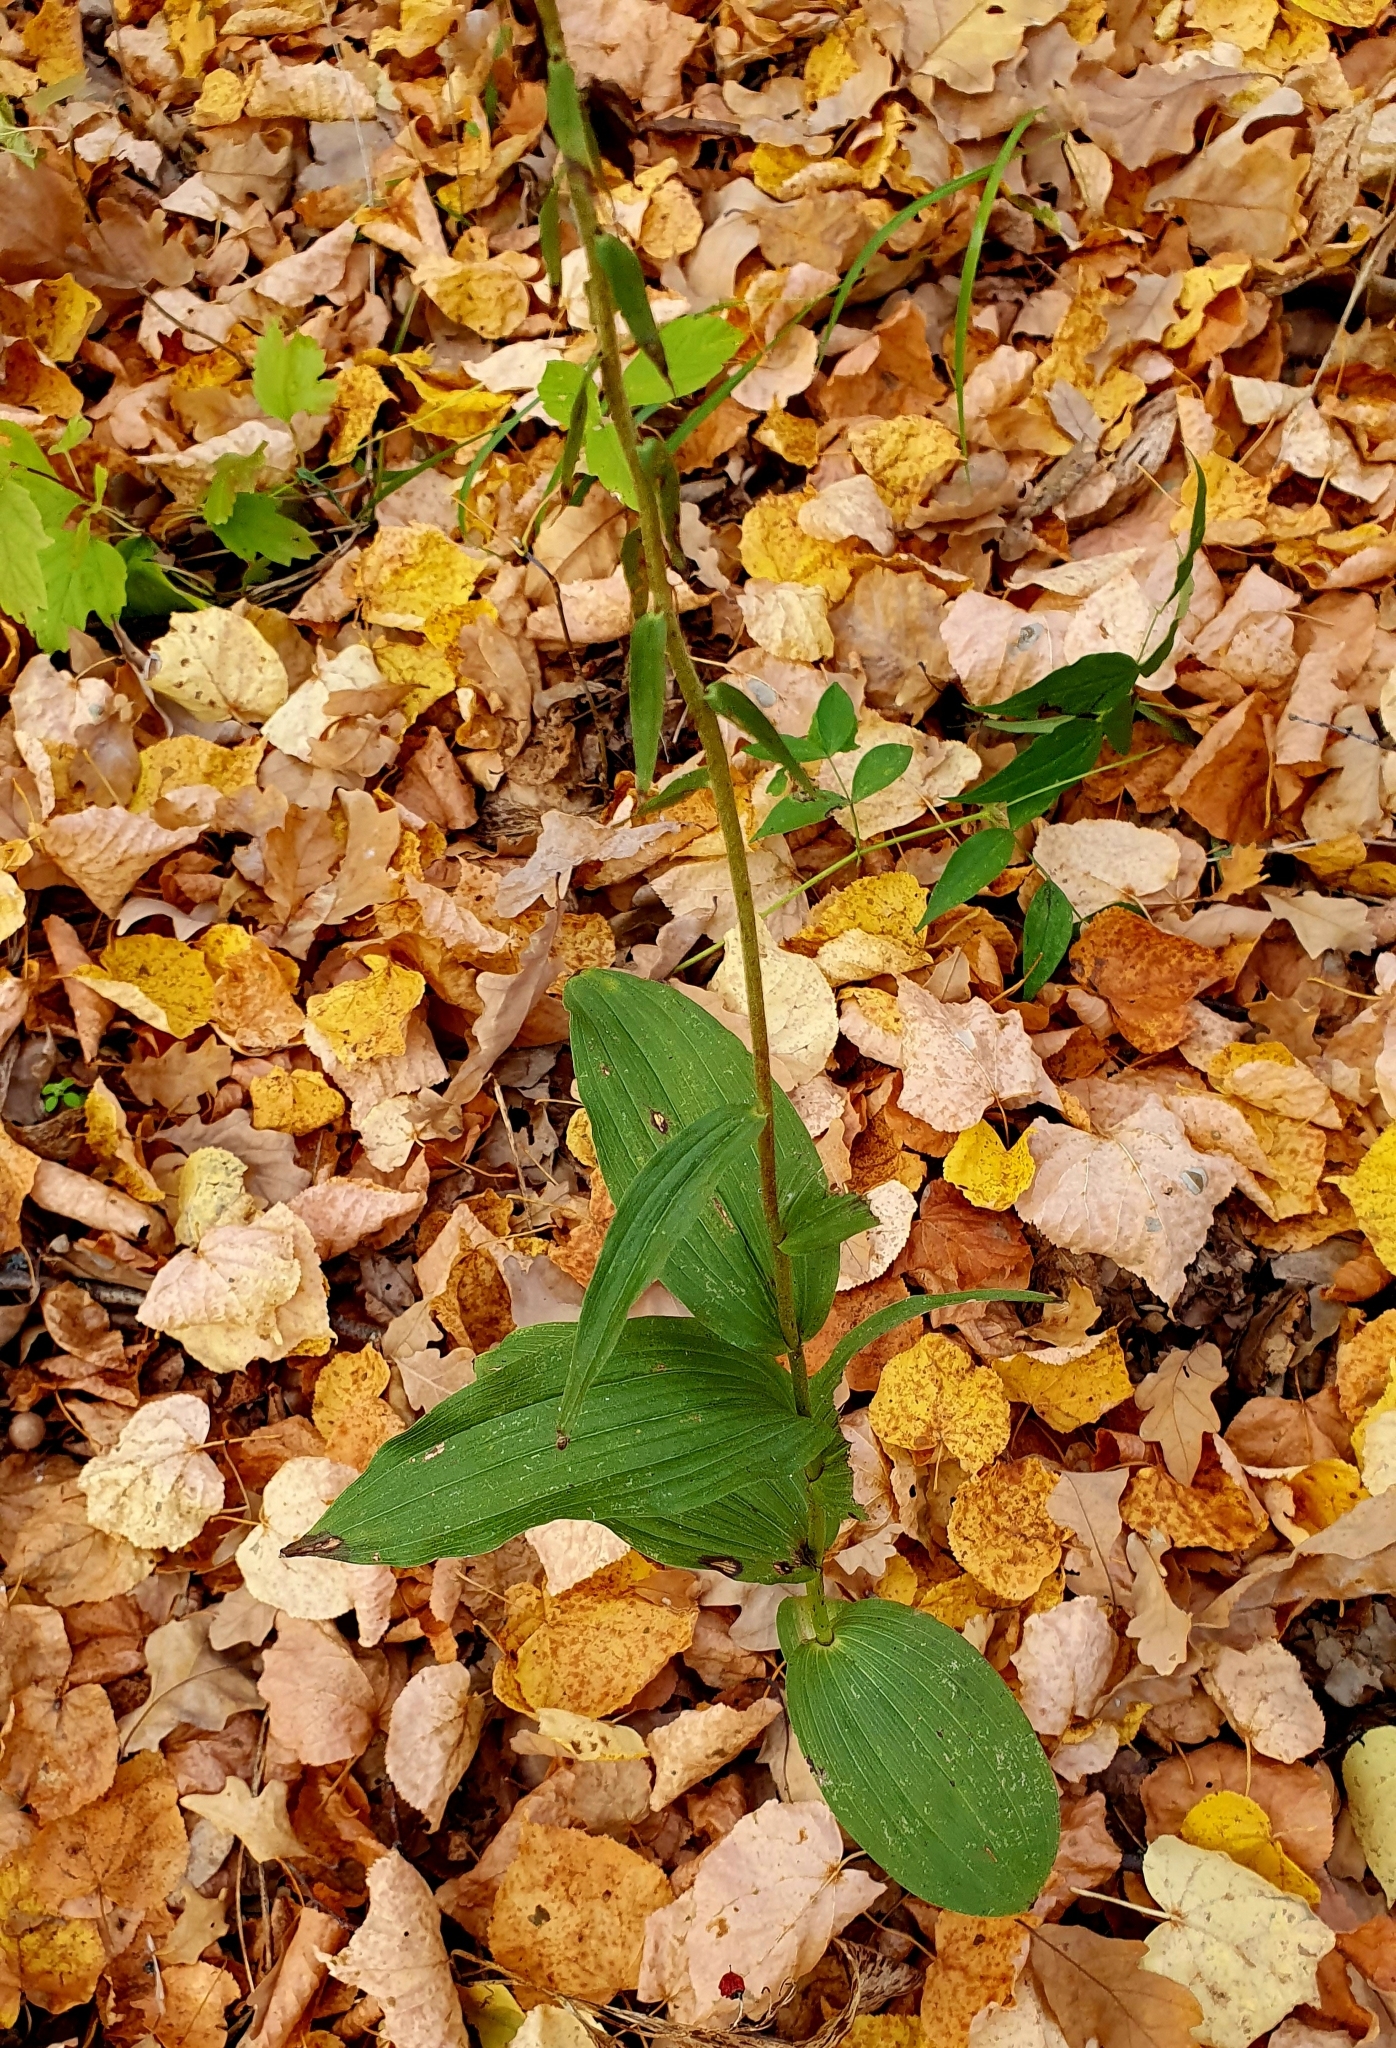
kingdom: Plantae
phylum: Tracheophyta
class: Liliopsida
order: Asparagales
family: Orchidaceae
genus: Epipactis
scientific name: Epipactis helleborine
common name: Broad-leaved helleborine
